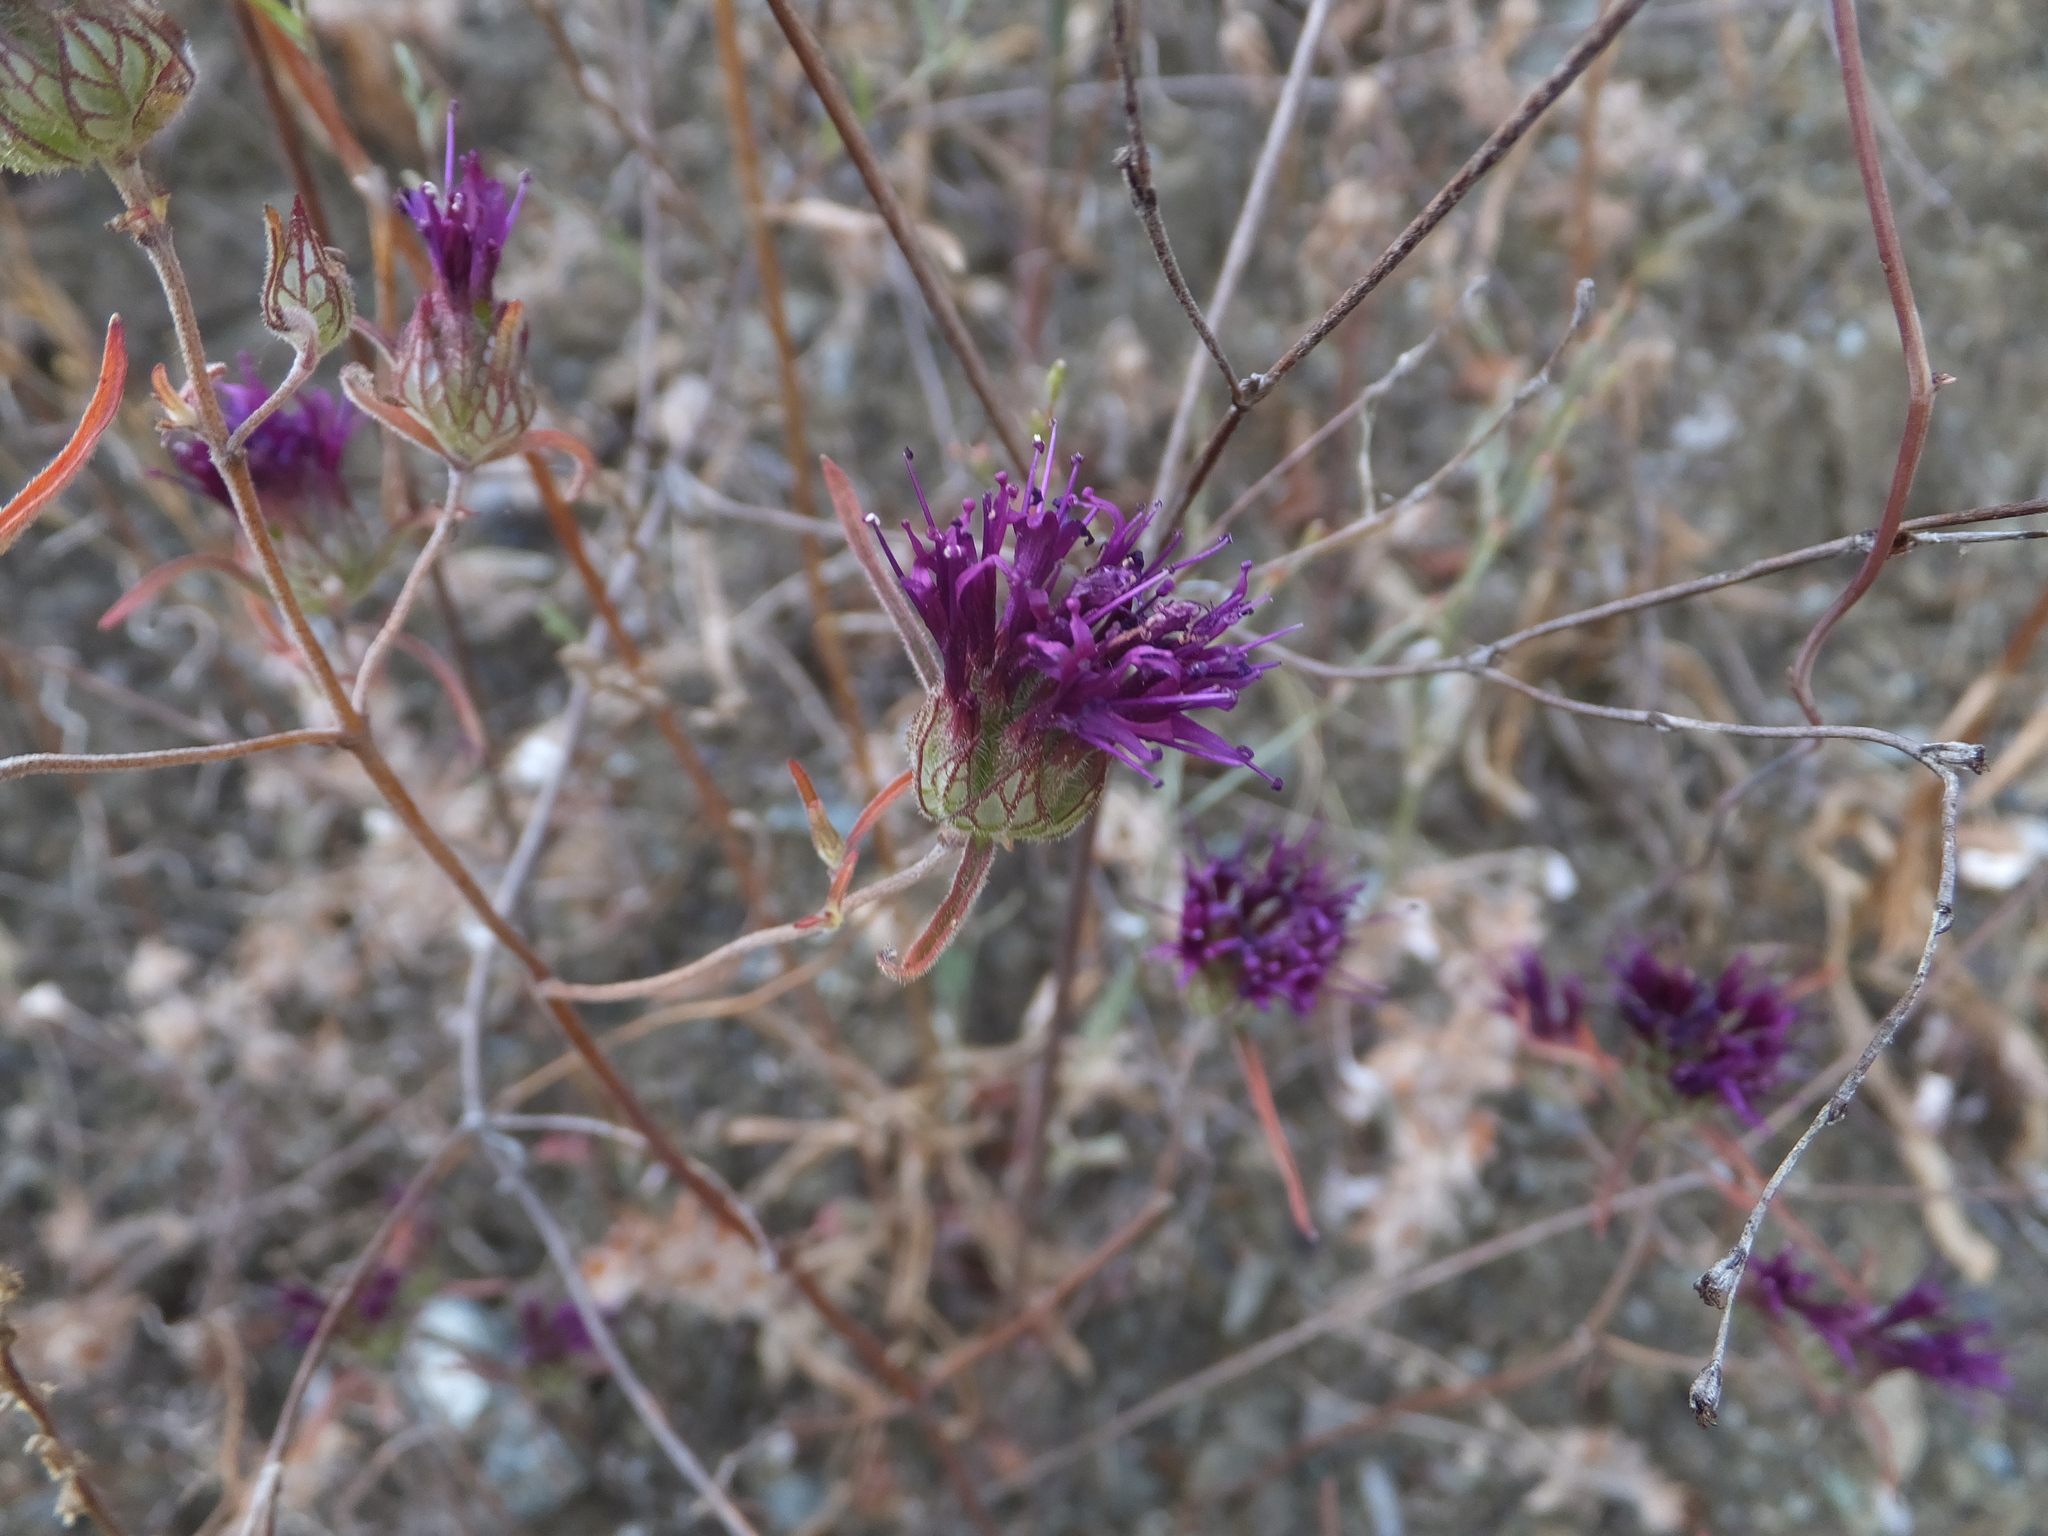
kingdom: Plantae
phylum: Tracheophyta
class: Magnoliopsida
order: Lamiales
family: Lamiaceae
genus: Monardella
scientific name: Monardella douglasii
